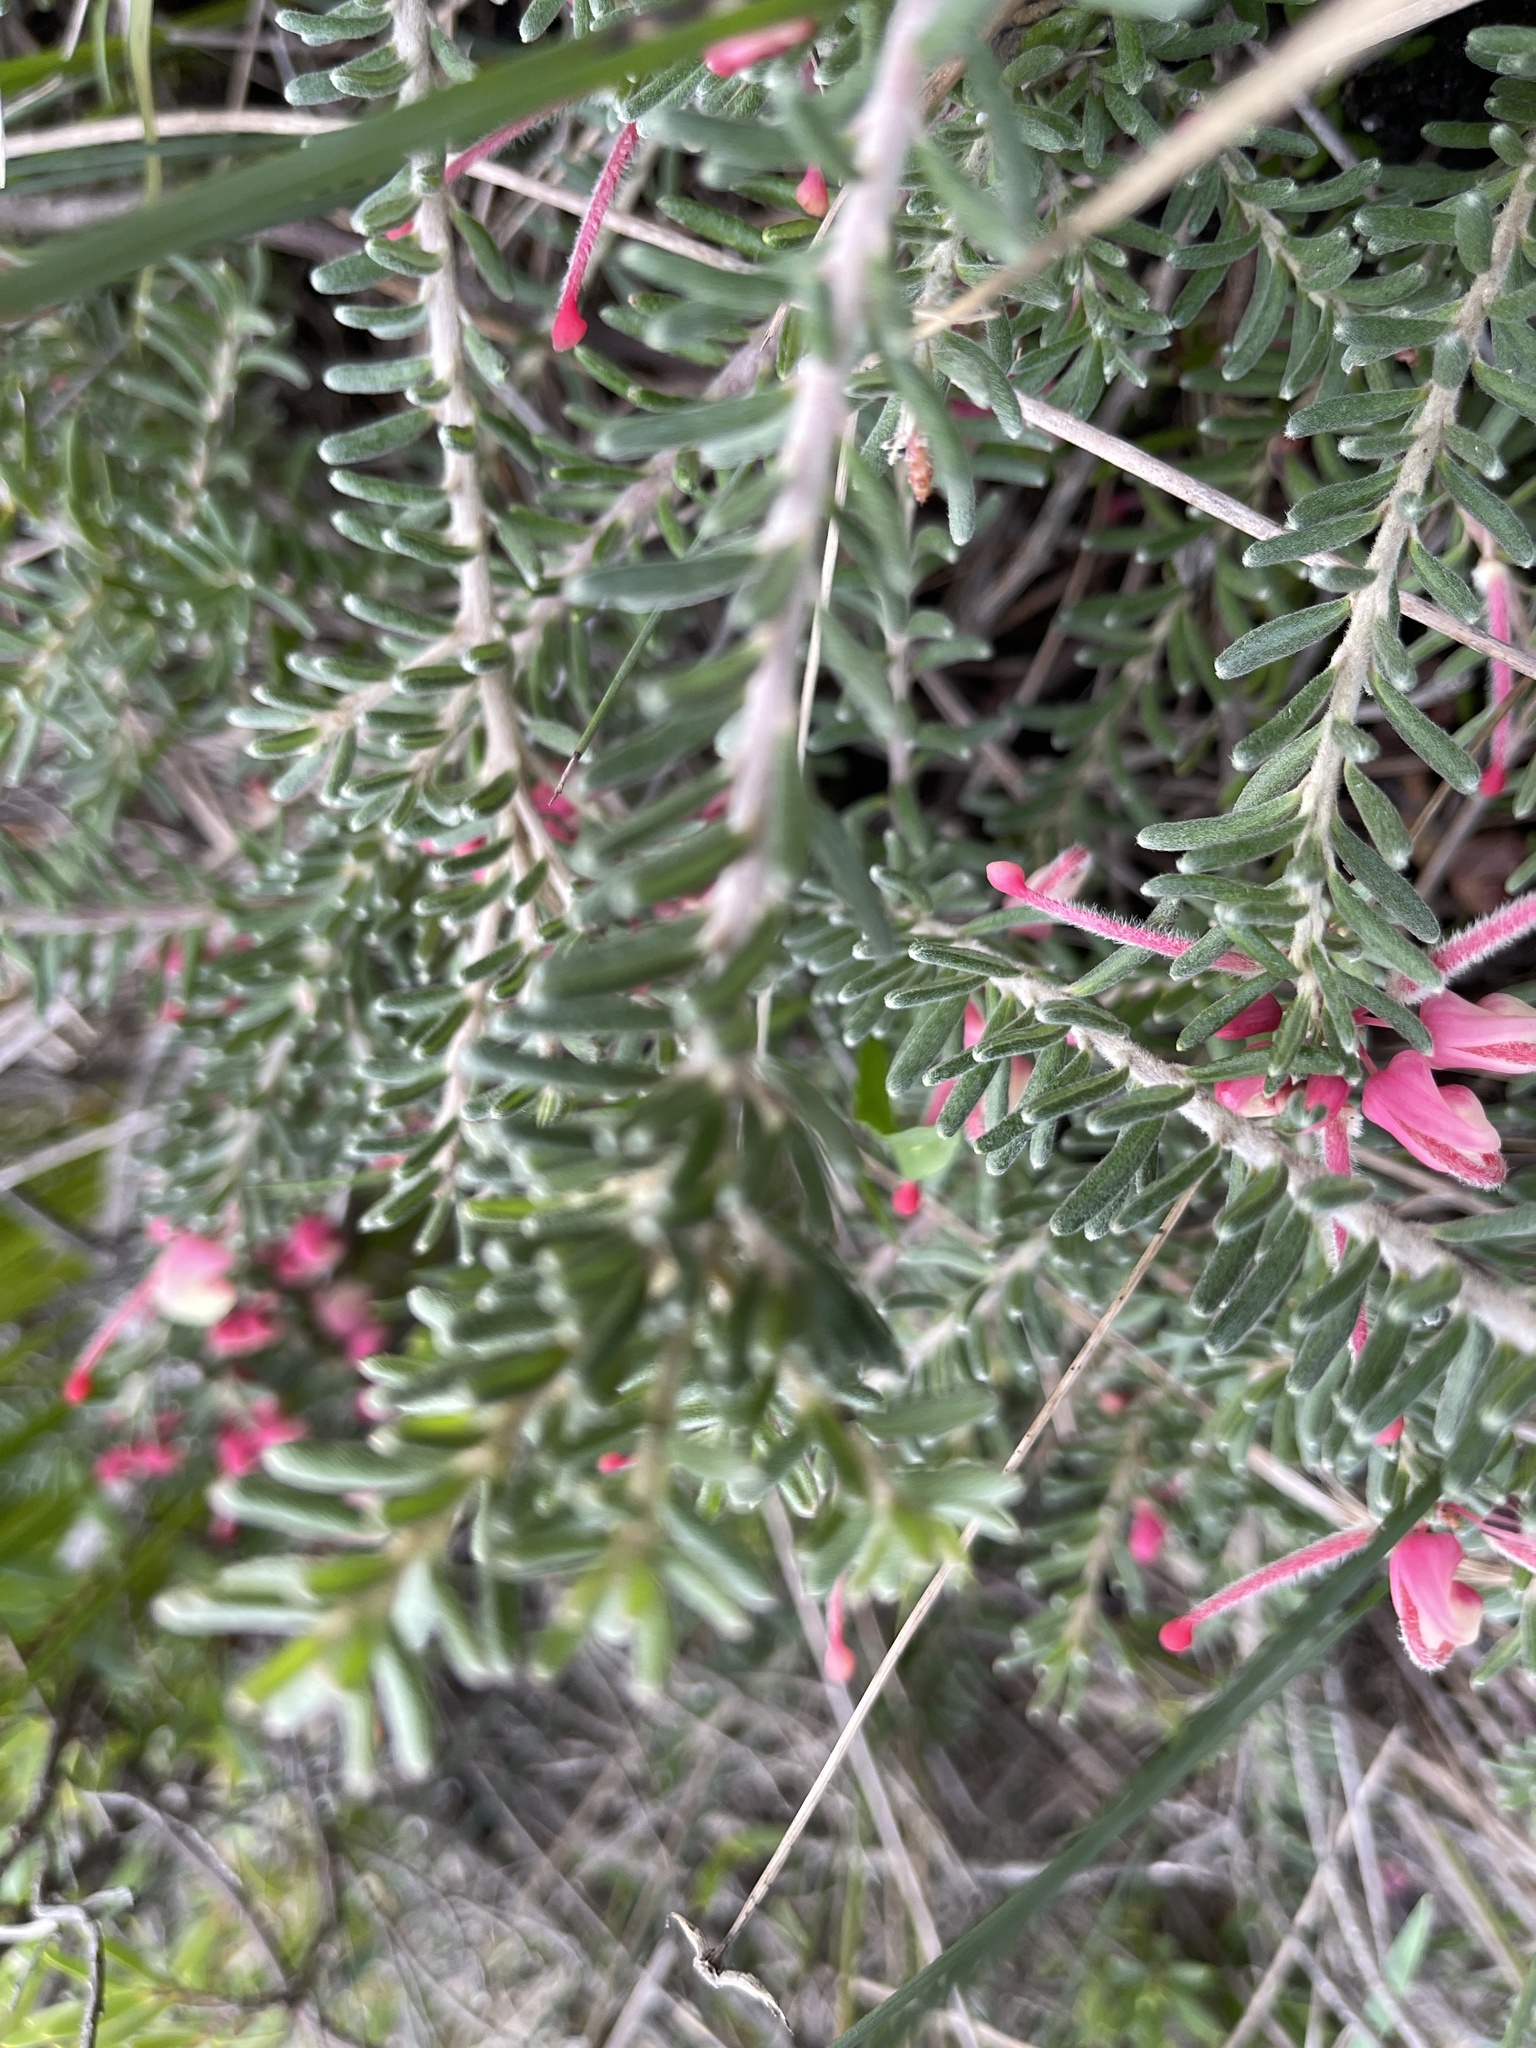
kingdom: Plantae
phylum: Tracheophyta
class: Magnoliopsida
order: Proteales
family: Proteaceae
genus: Grevillea
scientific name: Grevillea lanigera
